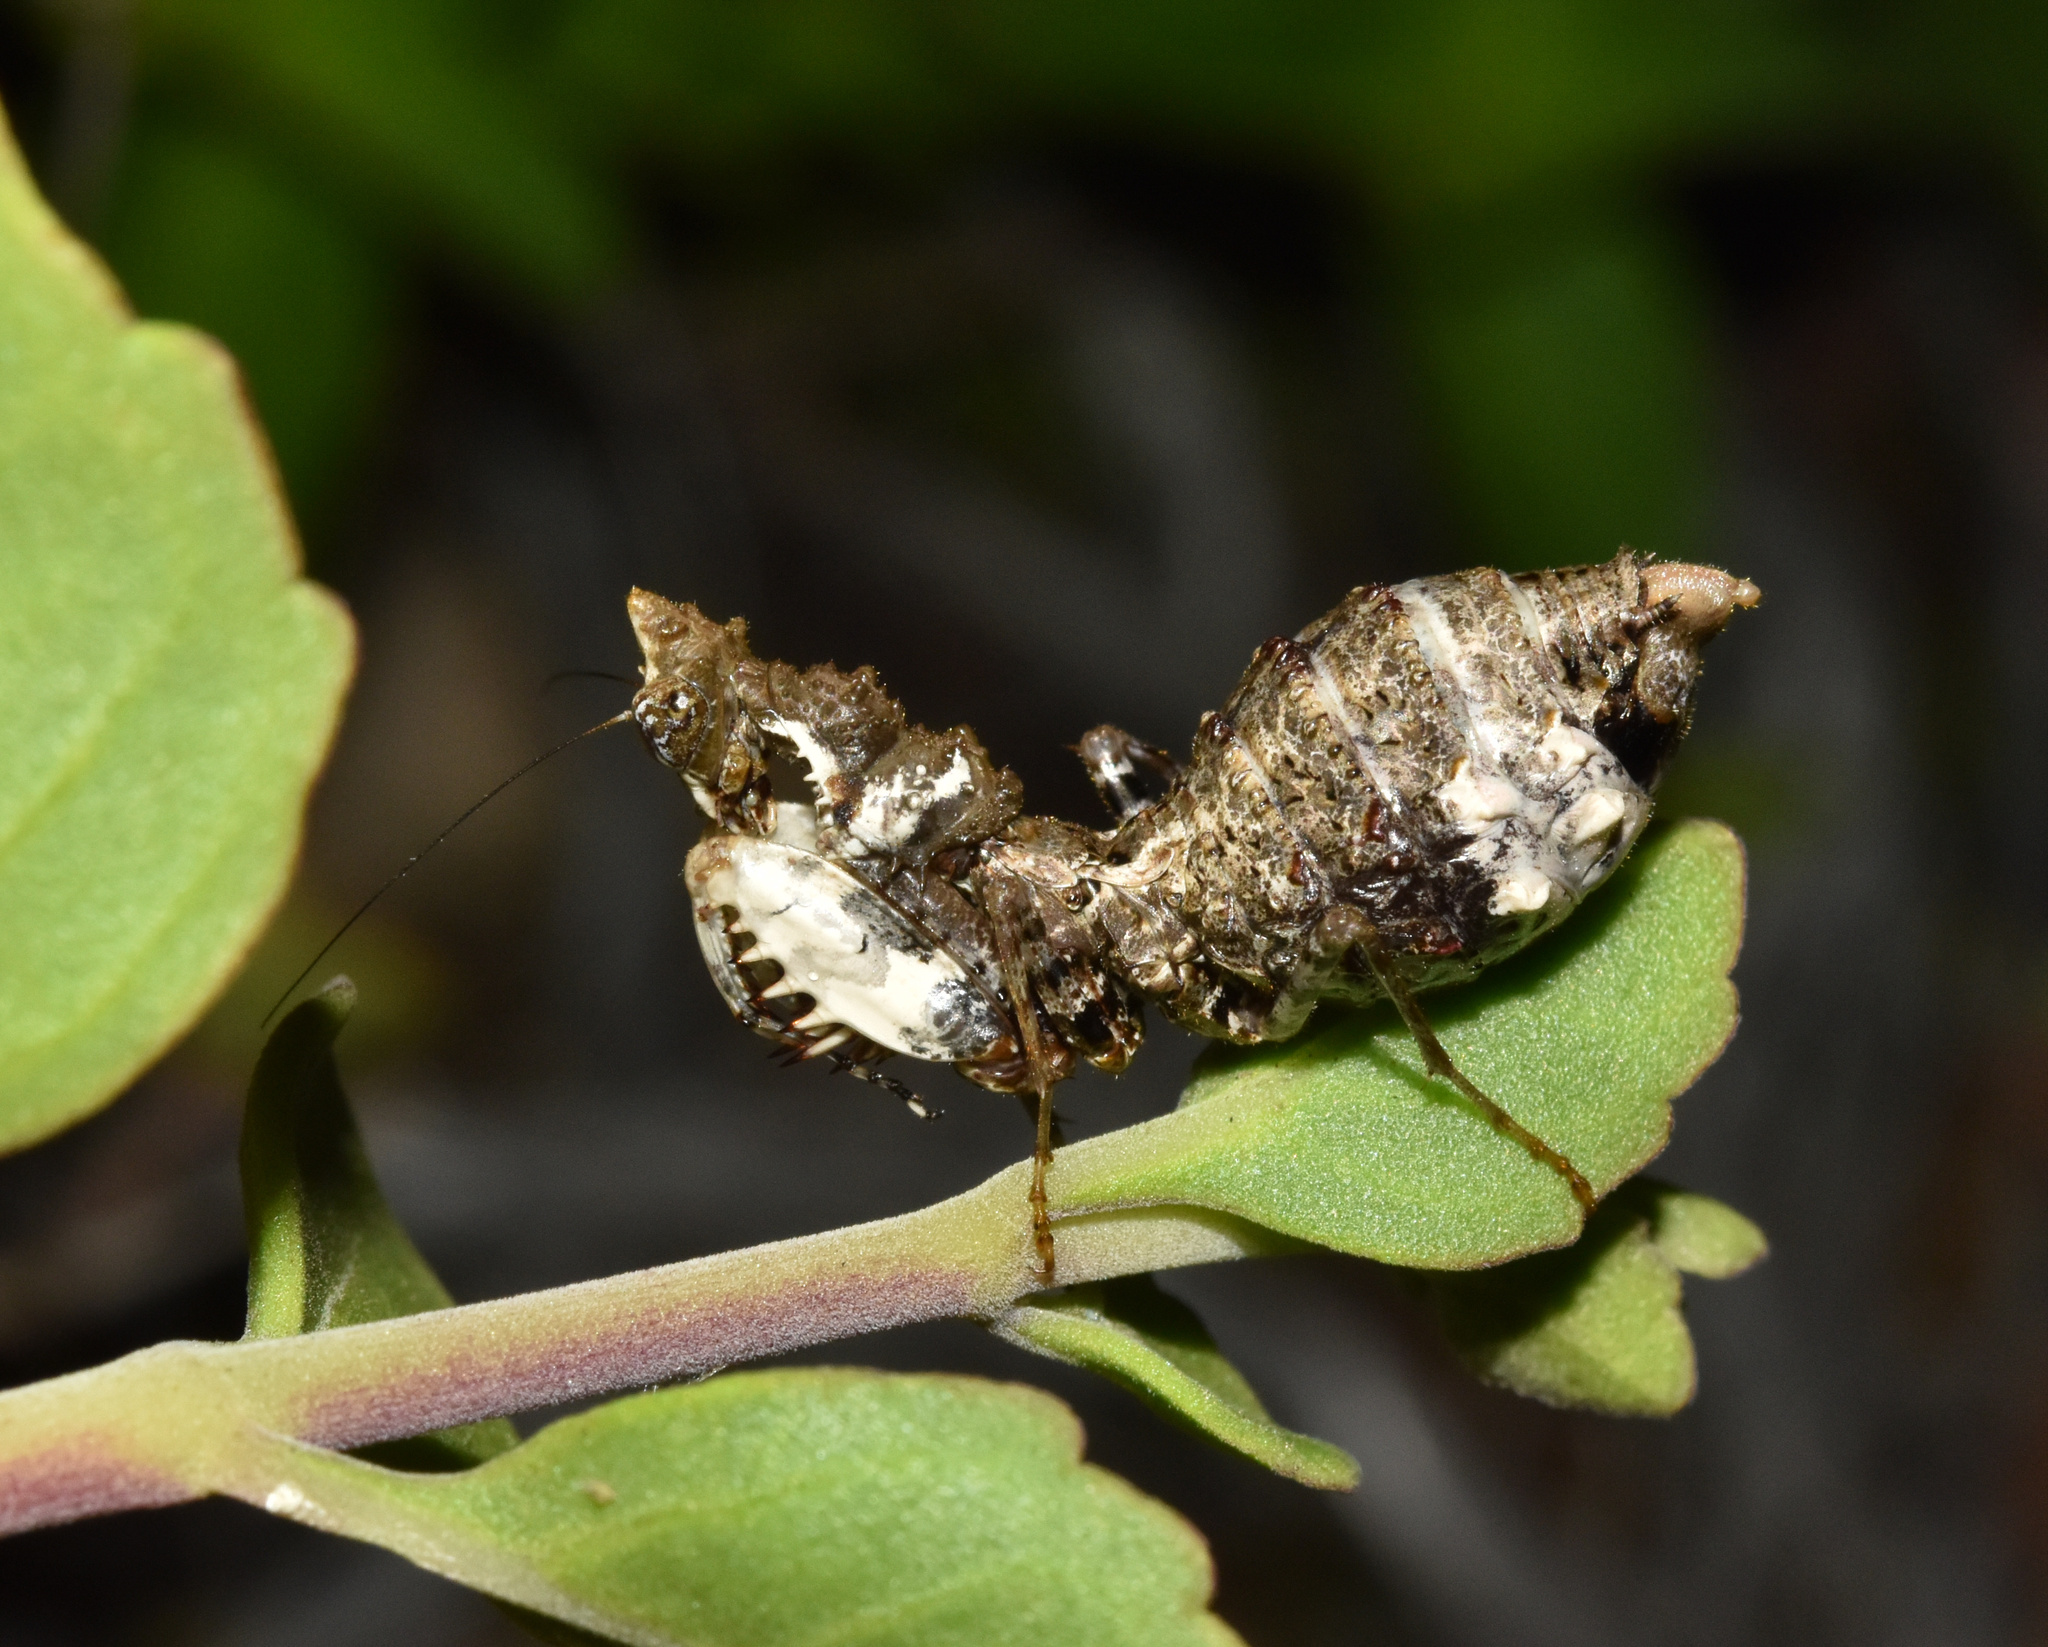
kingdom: Animalia
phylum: Arthropoda
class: Insecta
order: Mantodea
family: Hymenopodidae
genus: Oxypilus
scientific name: Oxypilus capensis
